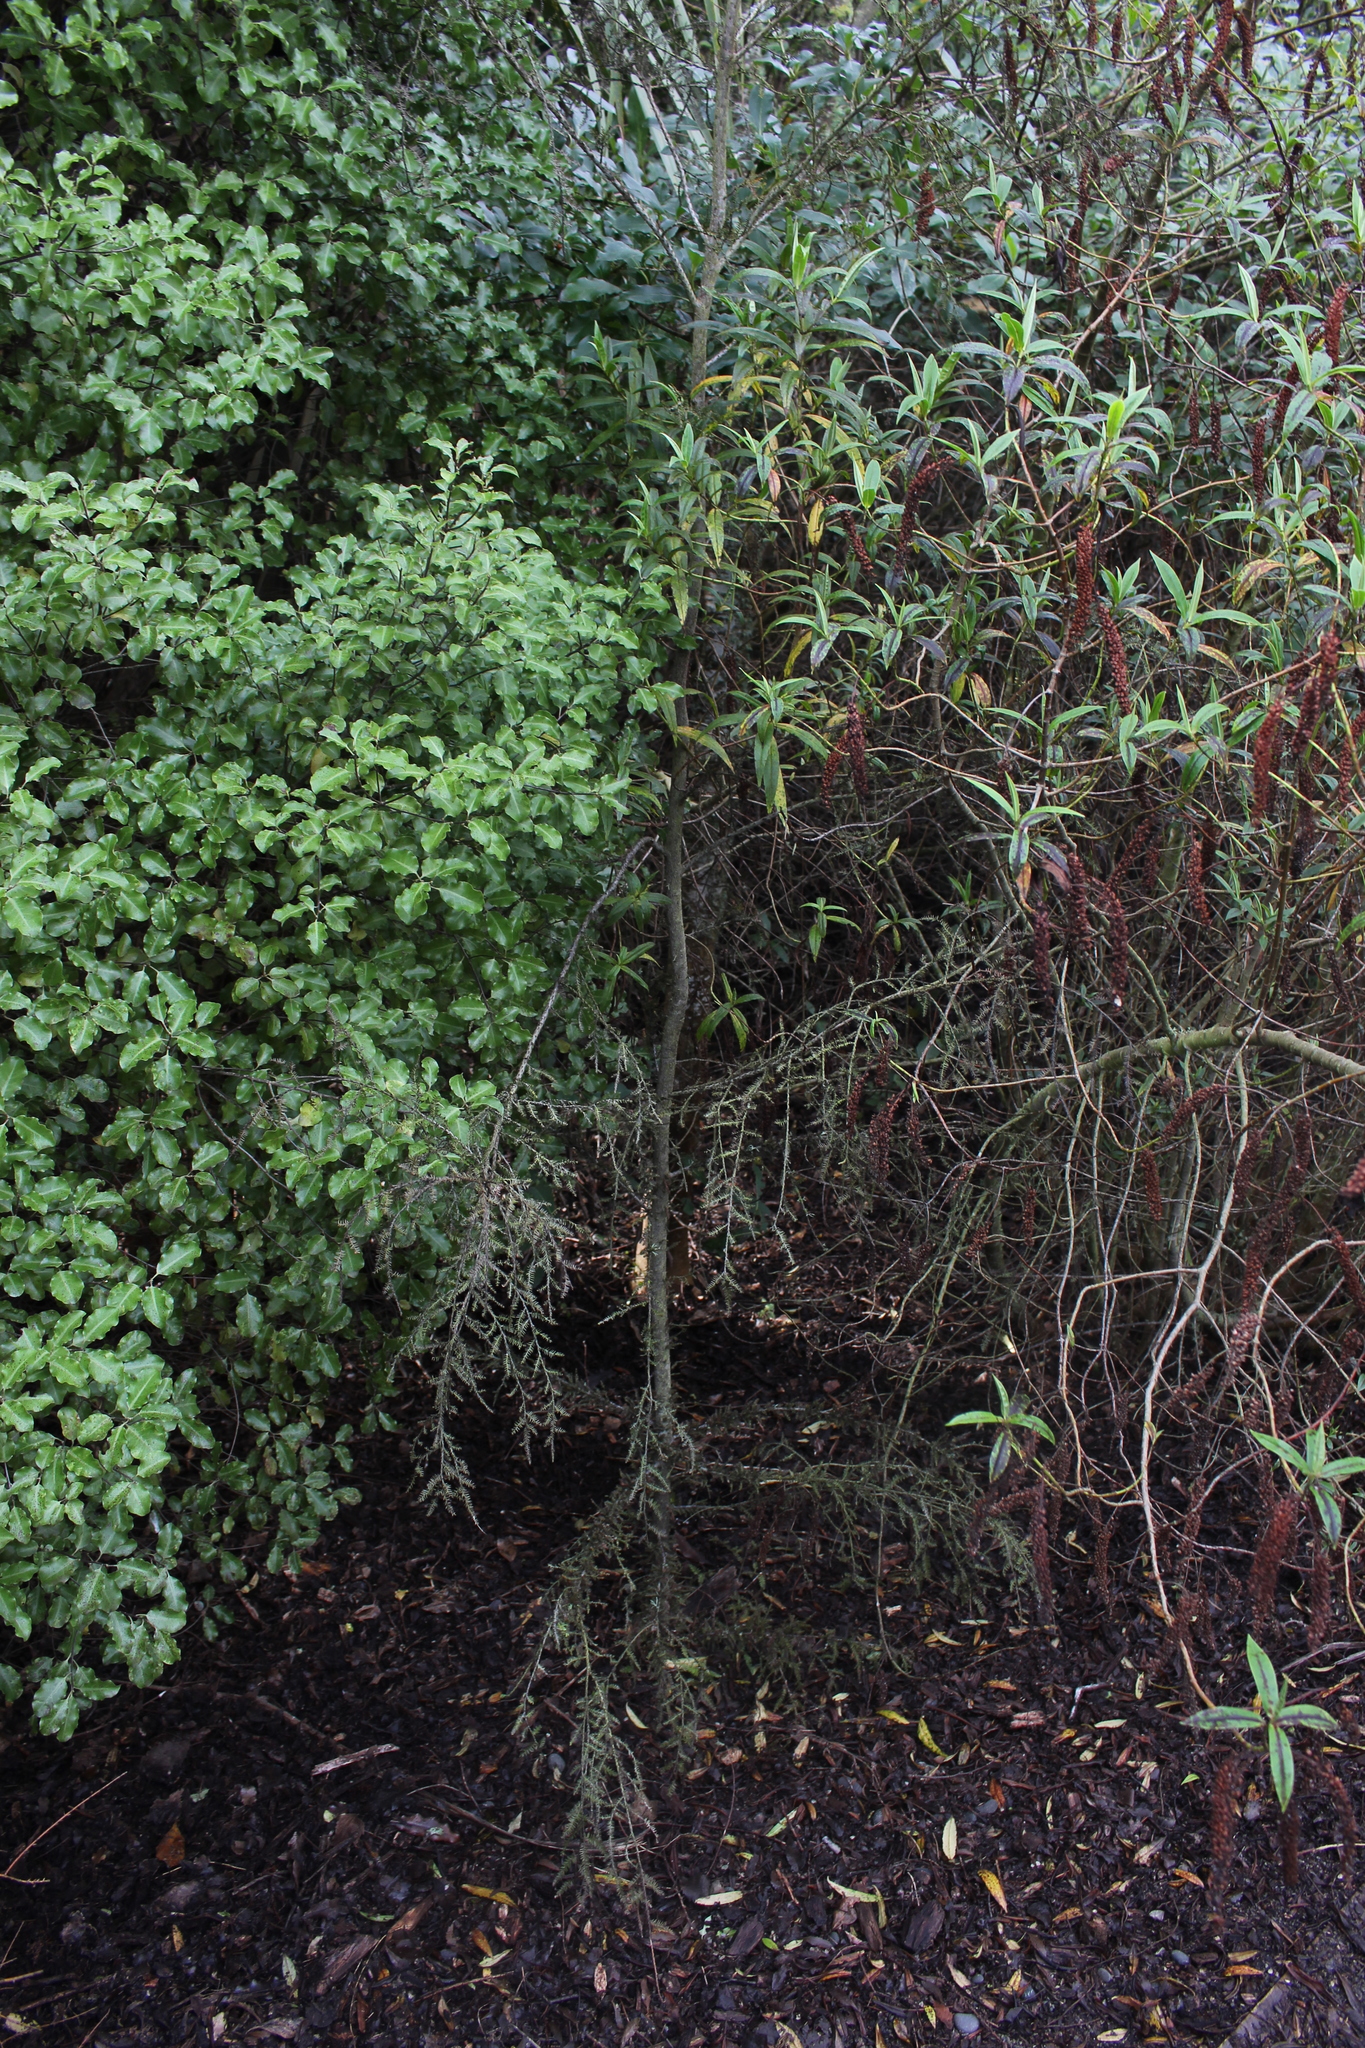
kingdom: Plantae
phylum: Tracheophyta
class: Pinopsida
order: Pinales
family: Podocarpaceae
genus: Dacrycarpus
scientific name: Dacrycarpus dacrydioides
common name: White pine
